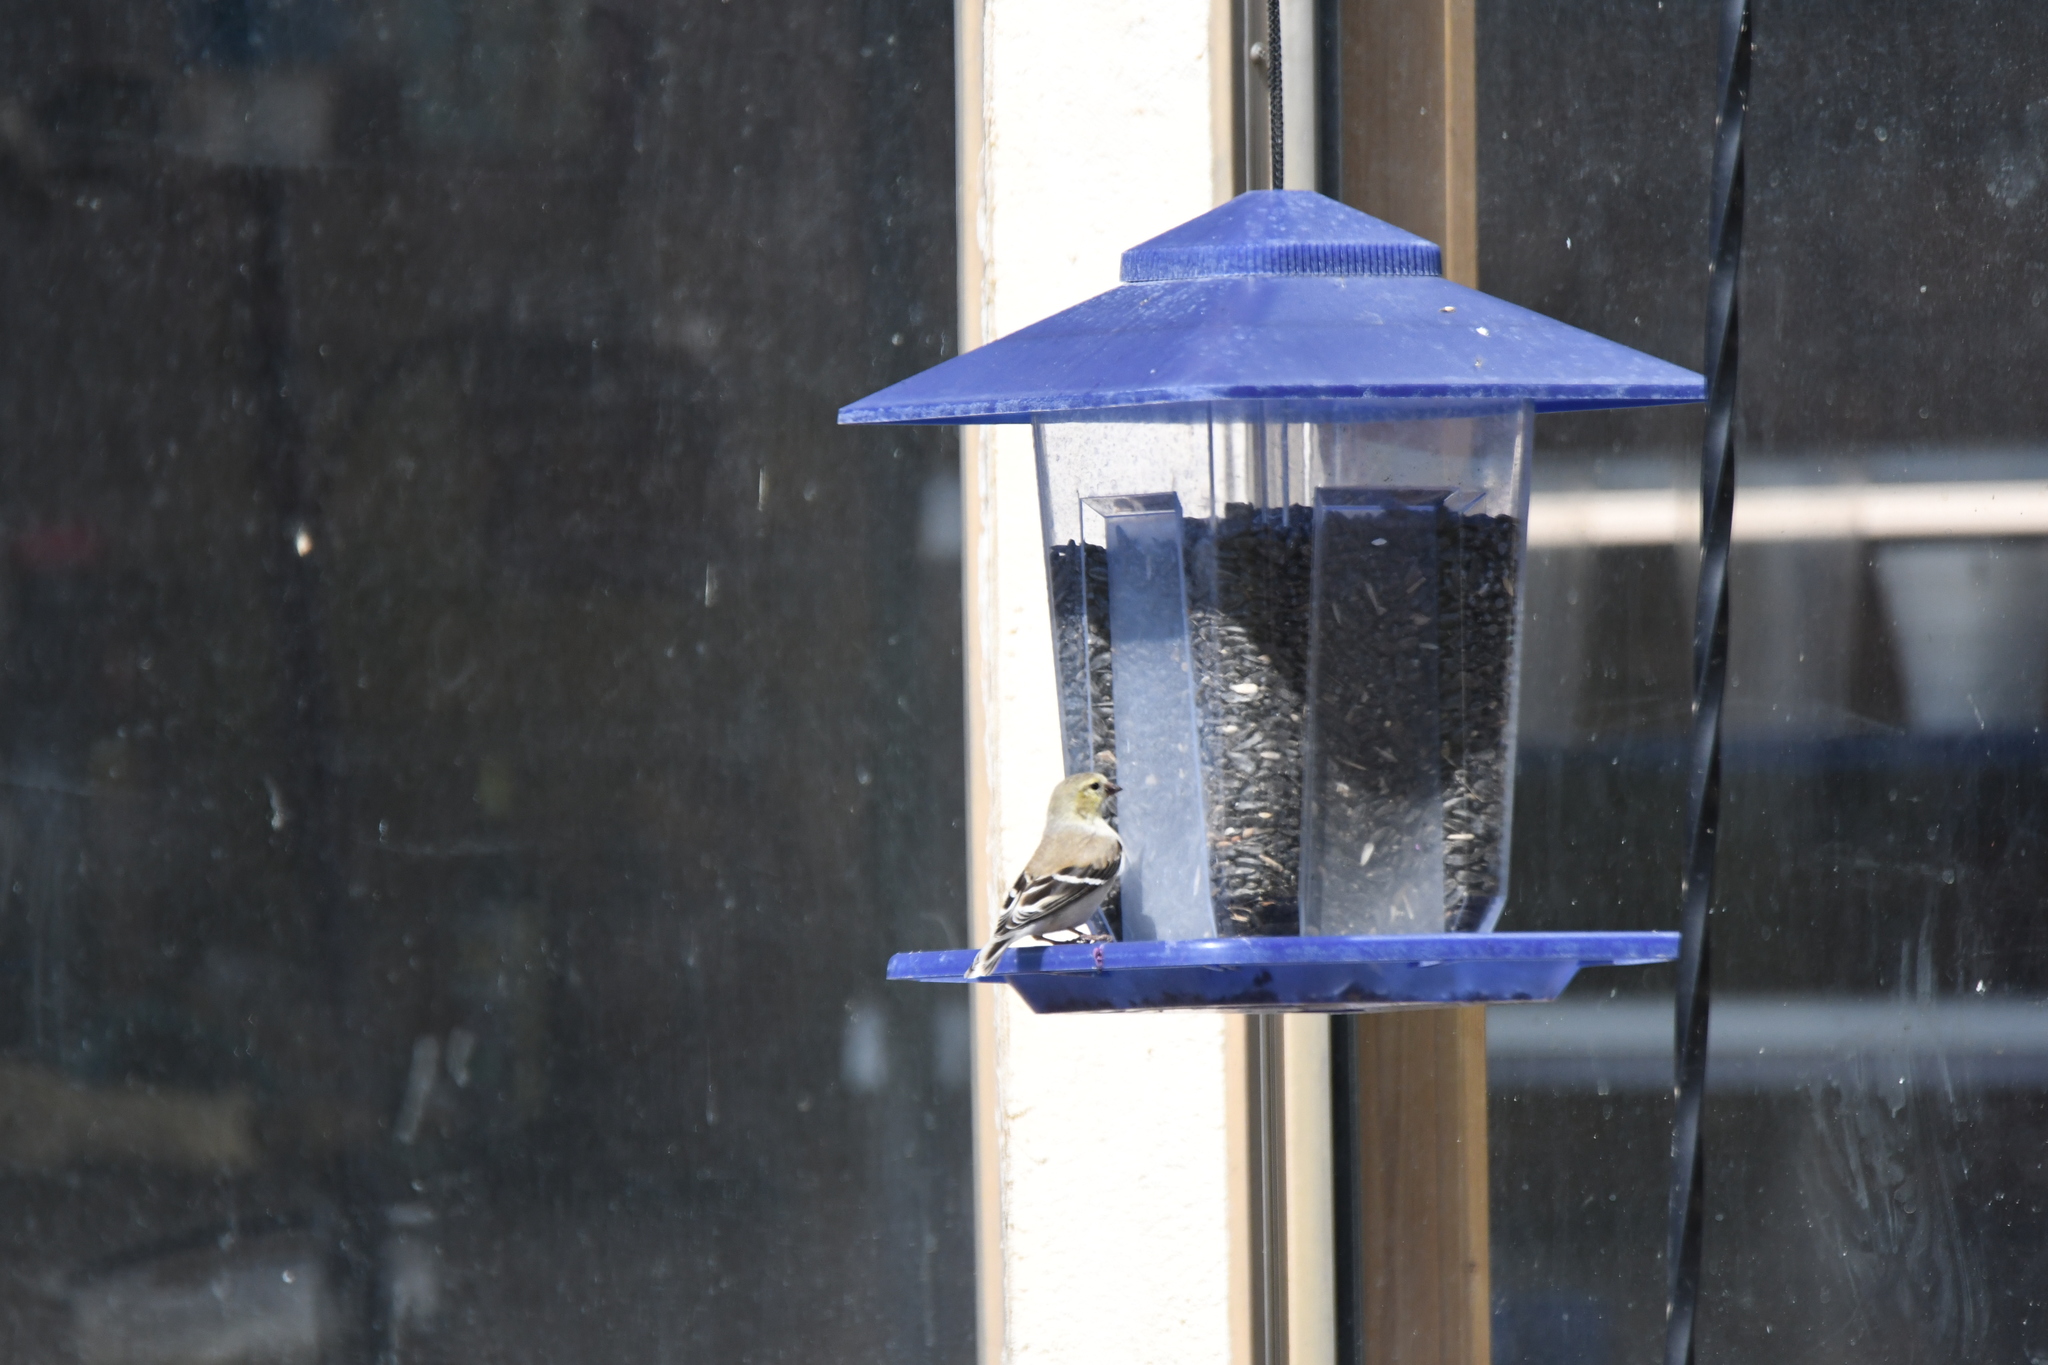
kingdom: Animalia
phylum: Chordata
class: Aves
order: Passeriformes
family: Fringillidae
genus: Spinus
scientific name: Spinus tristis
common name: American goldfinch
